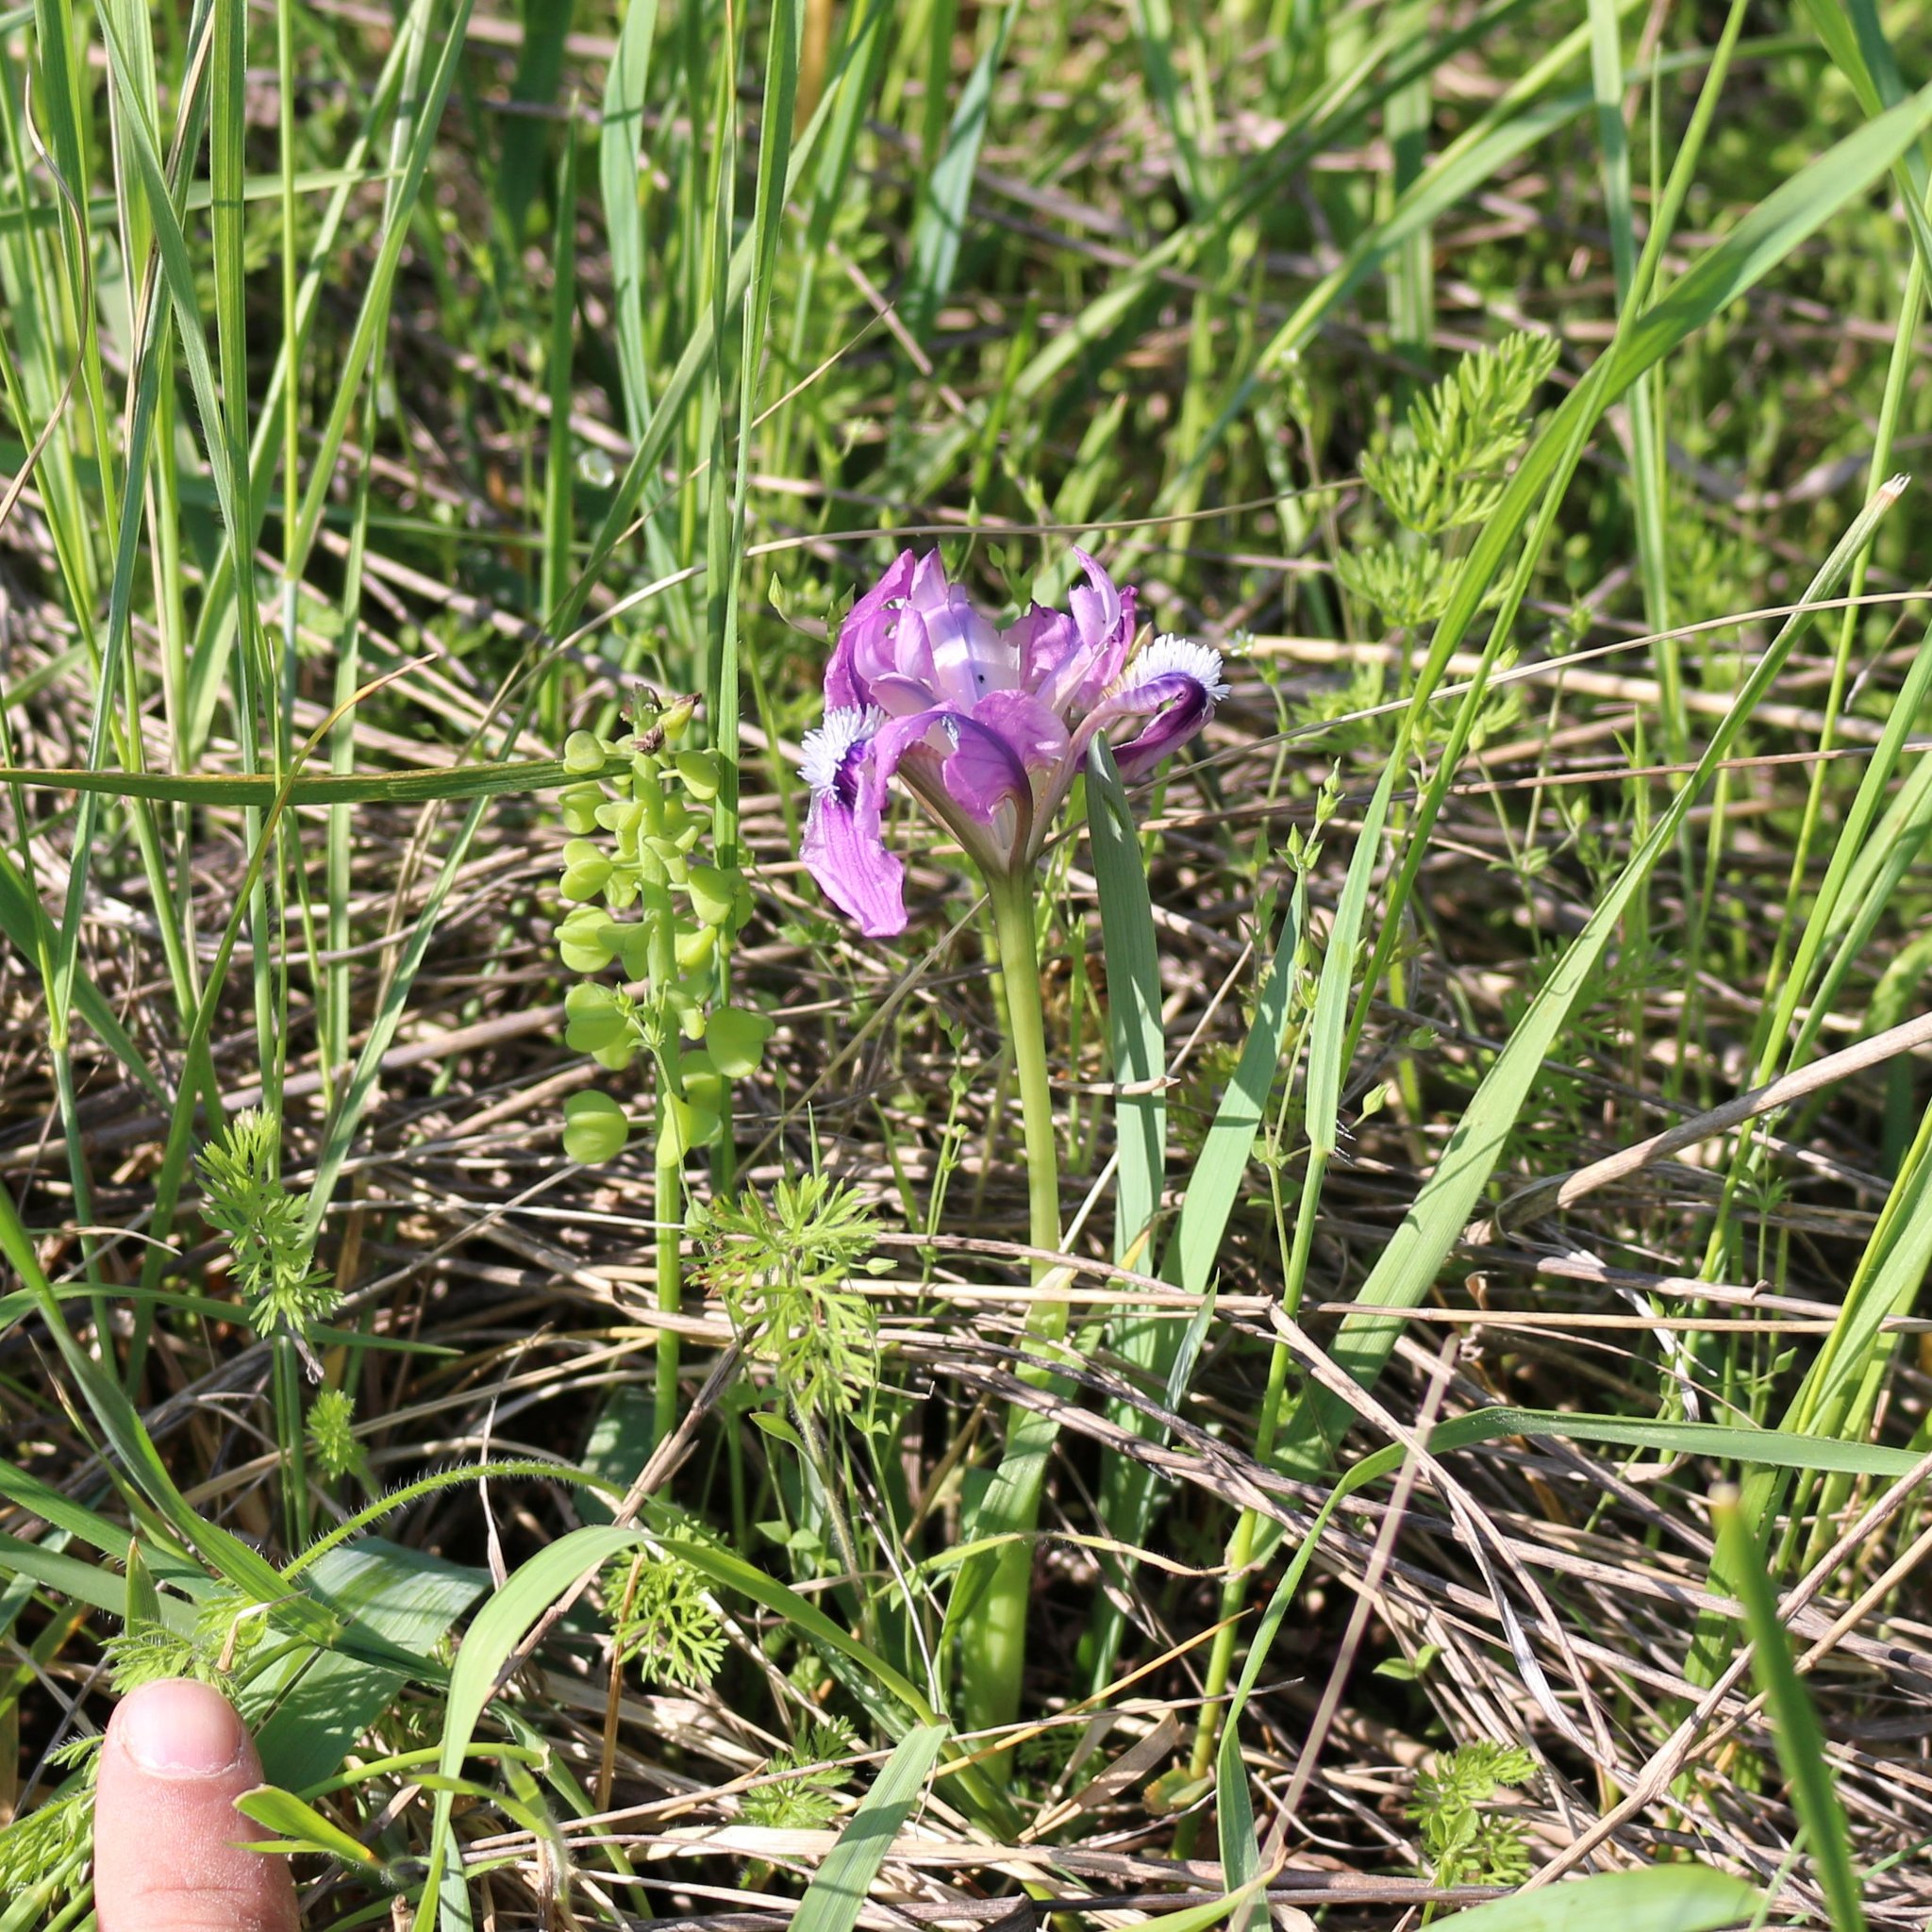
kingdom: Plantae
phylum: Tracheophyta
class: Liliopsida
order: Asparagales
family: Iridaceae
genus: Iris
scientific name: Iris pumila
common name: Dwarf iris
